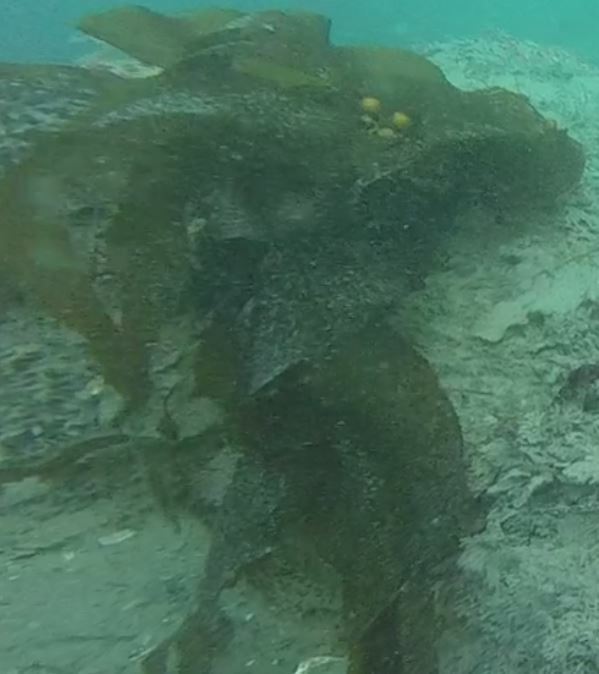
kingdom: Chromista
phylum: Ochrophyta
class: Phaeophyceae
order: Laminariales
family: Laminariaceae
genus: Macrocystis
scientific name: Macrocystis pyrifera
